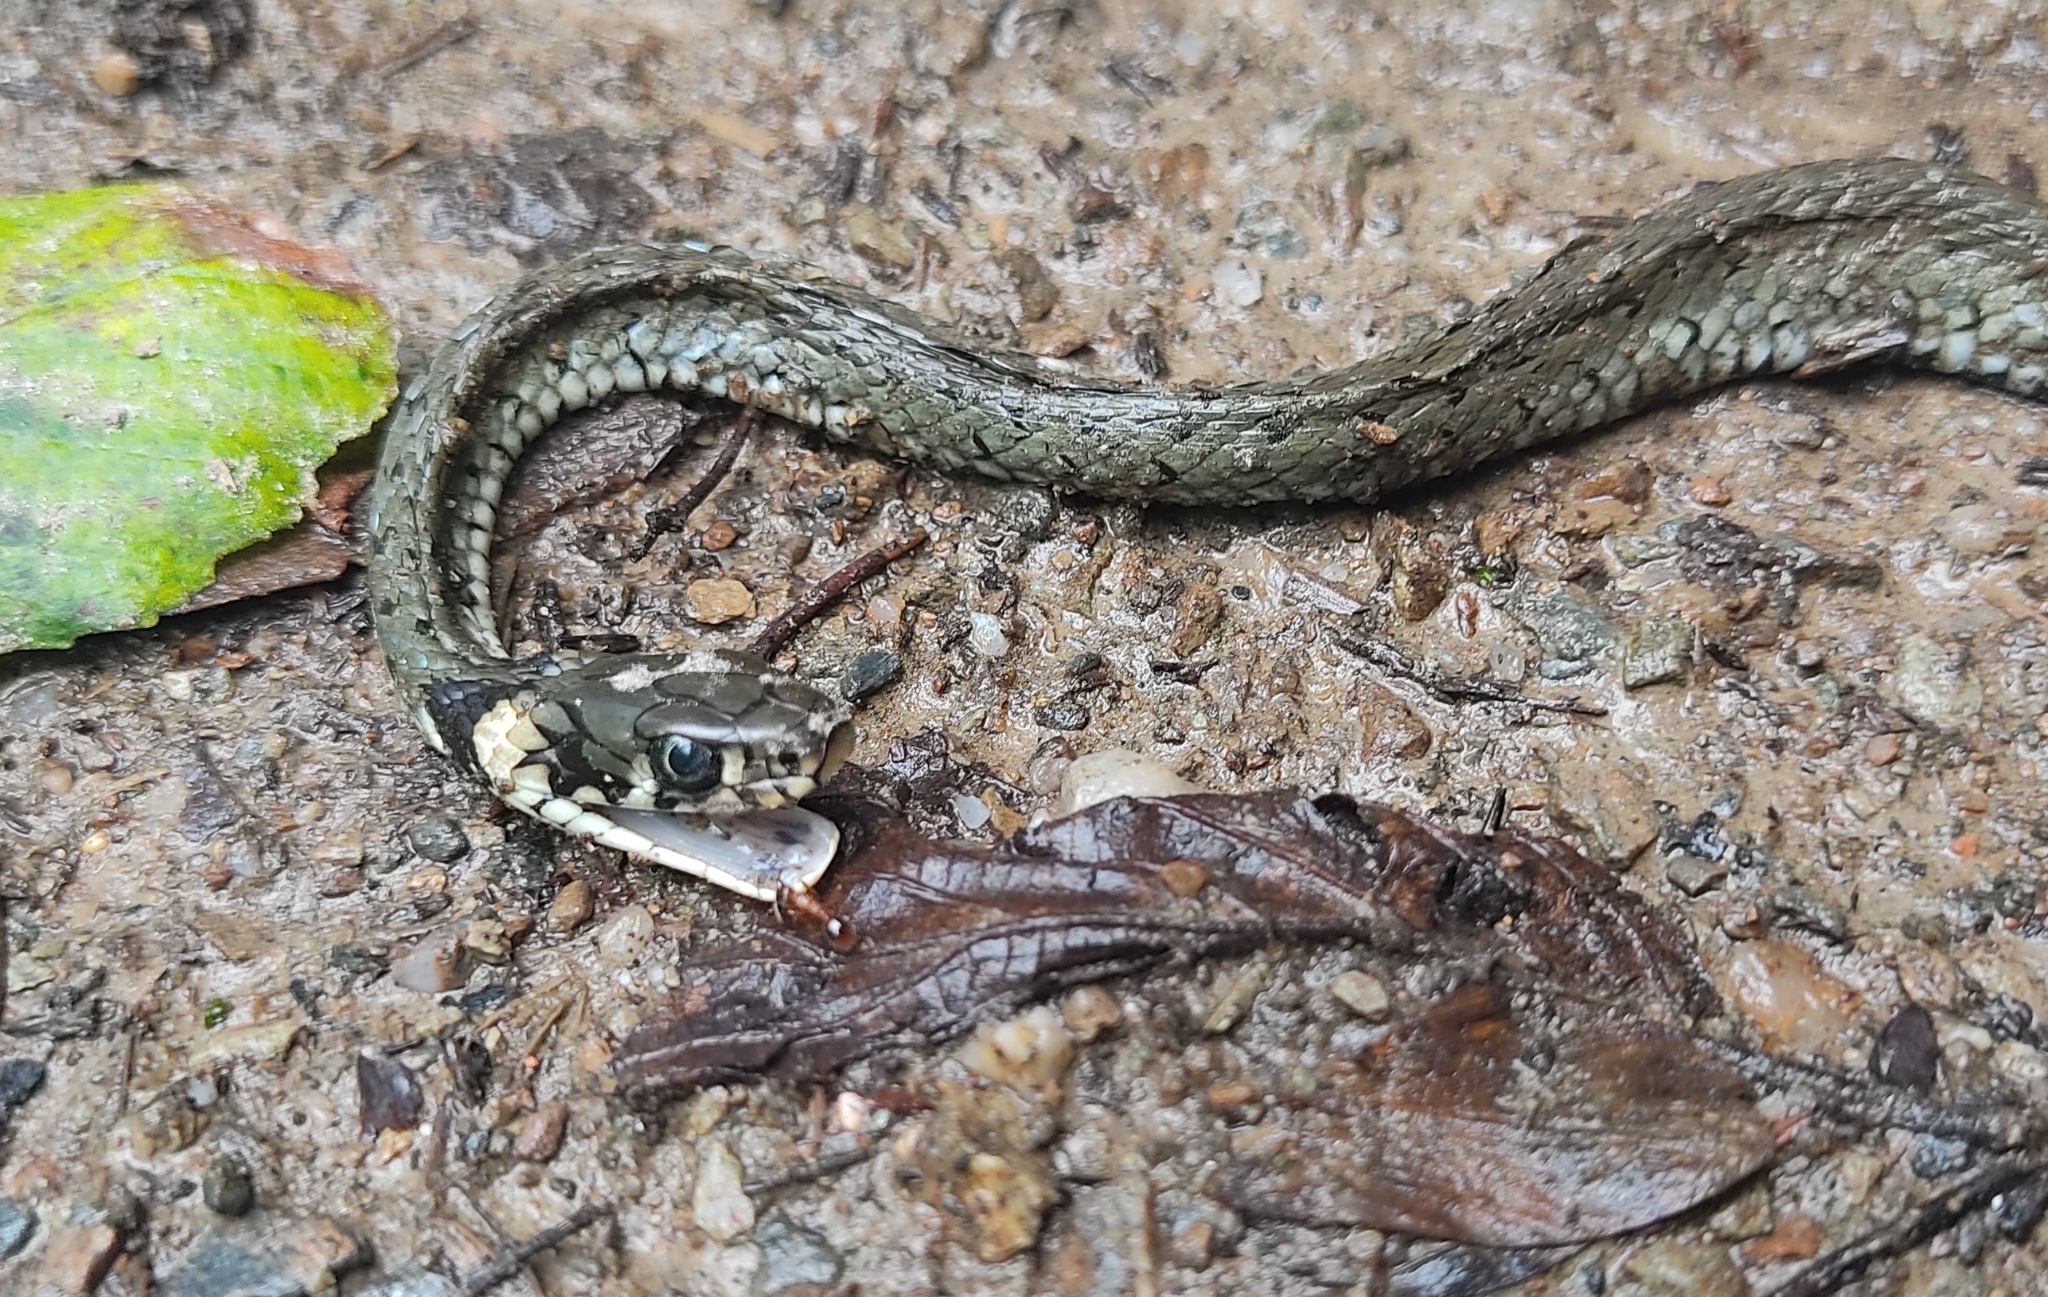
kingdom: Animalia
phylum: Chordata
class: Squamata
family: Colubridae
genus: Natrix
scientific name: Natrix natrix
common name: Grass snake
